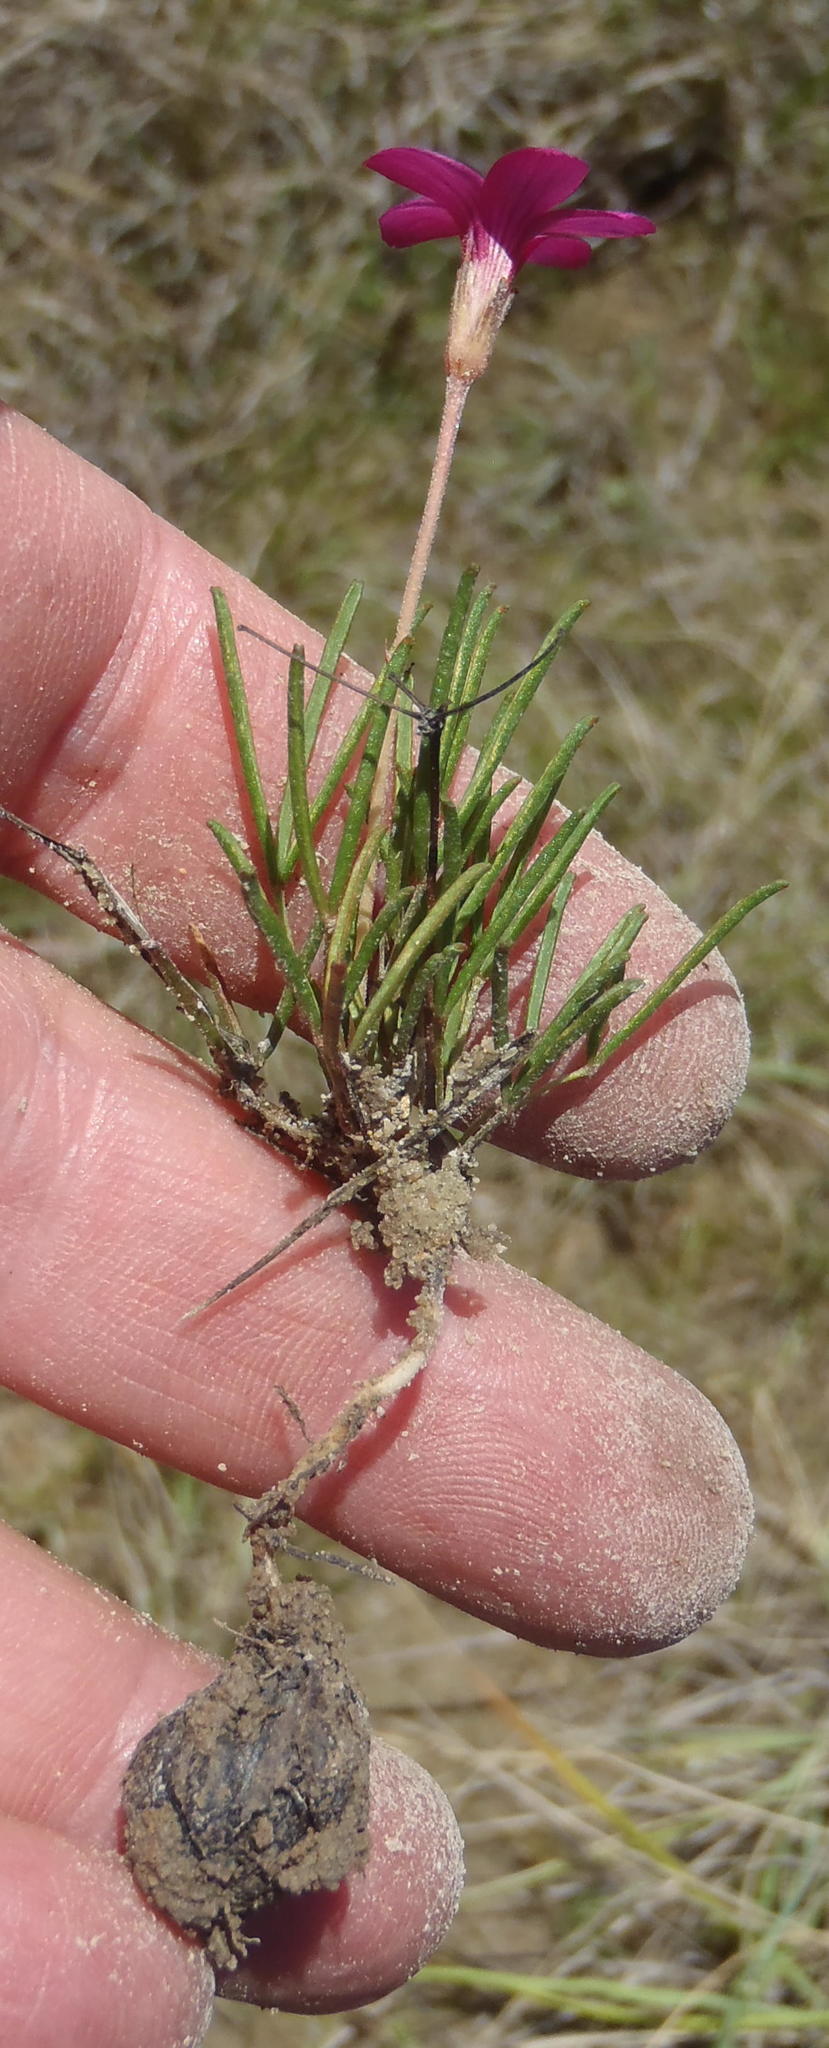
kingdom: Plantae
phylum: Tracheophyta
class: Magnoliopsida
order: Oxalidales
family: Oxalidaceae
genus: Oxalis
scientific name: Oxalis polyphylla
